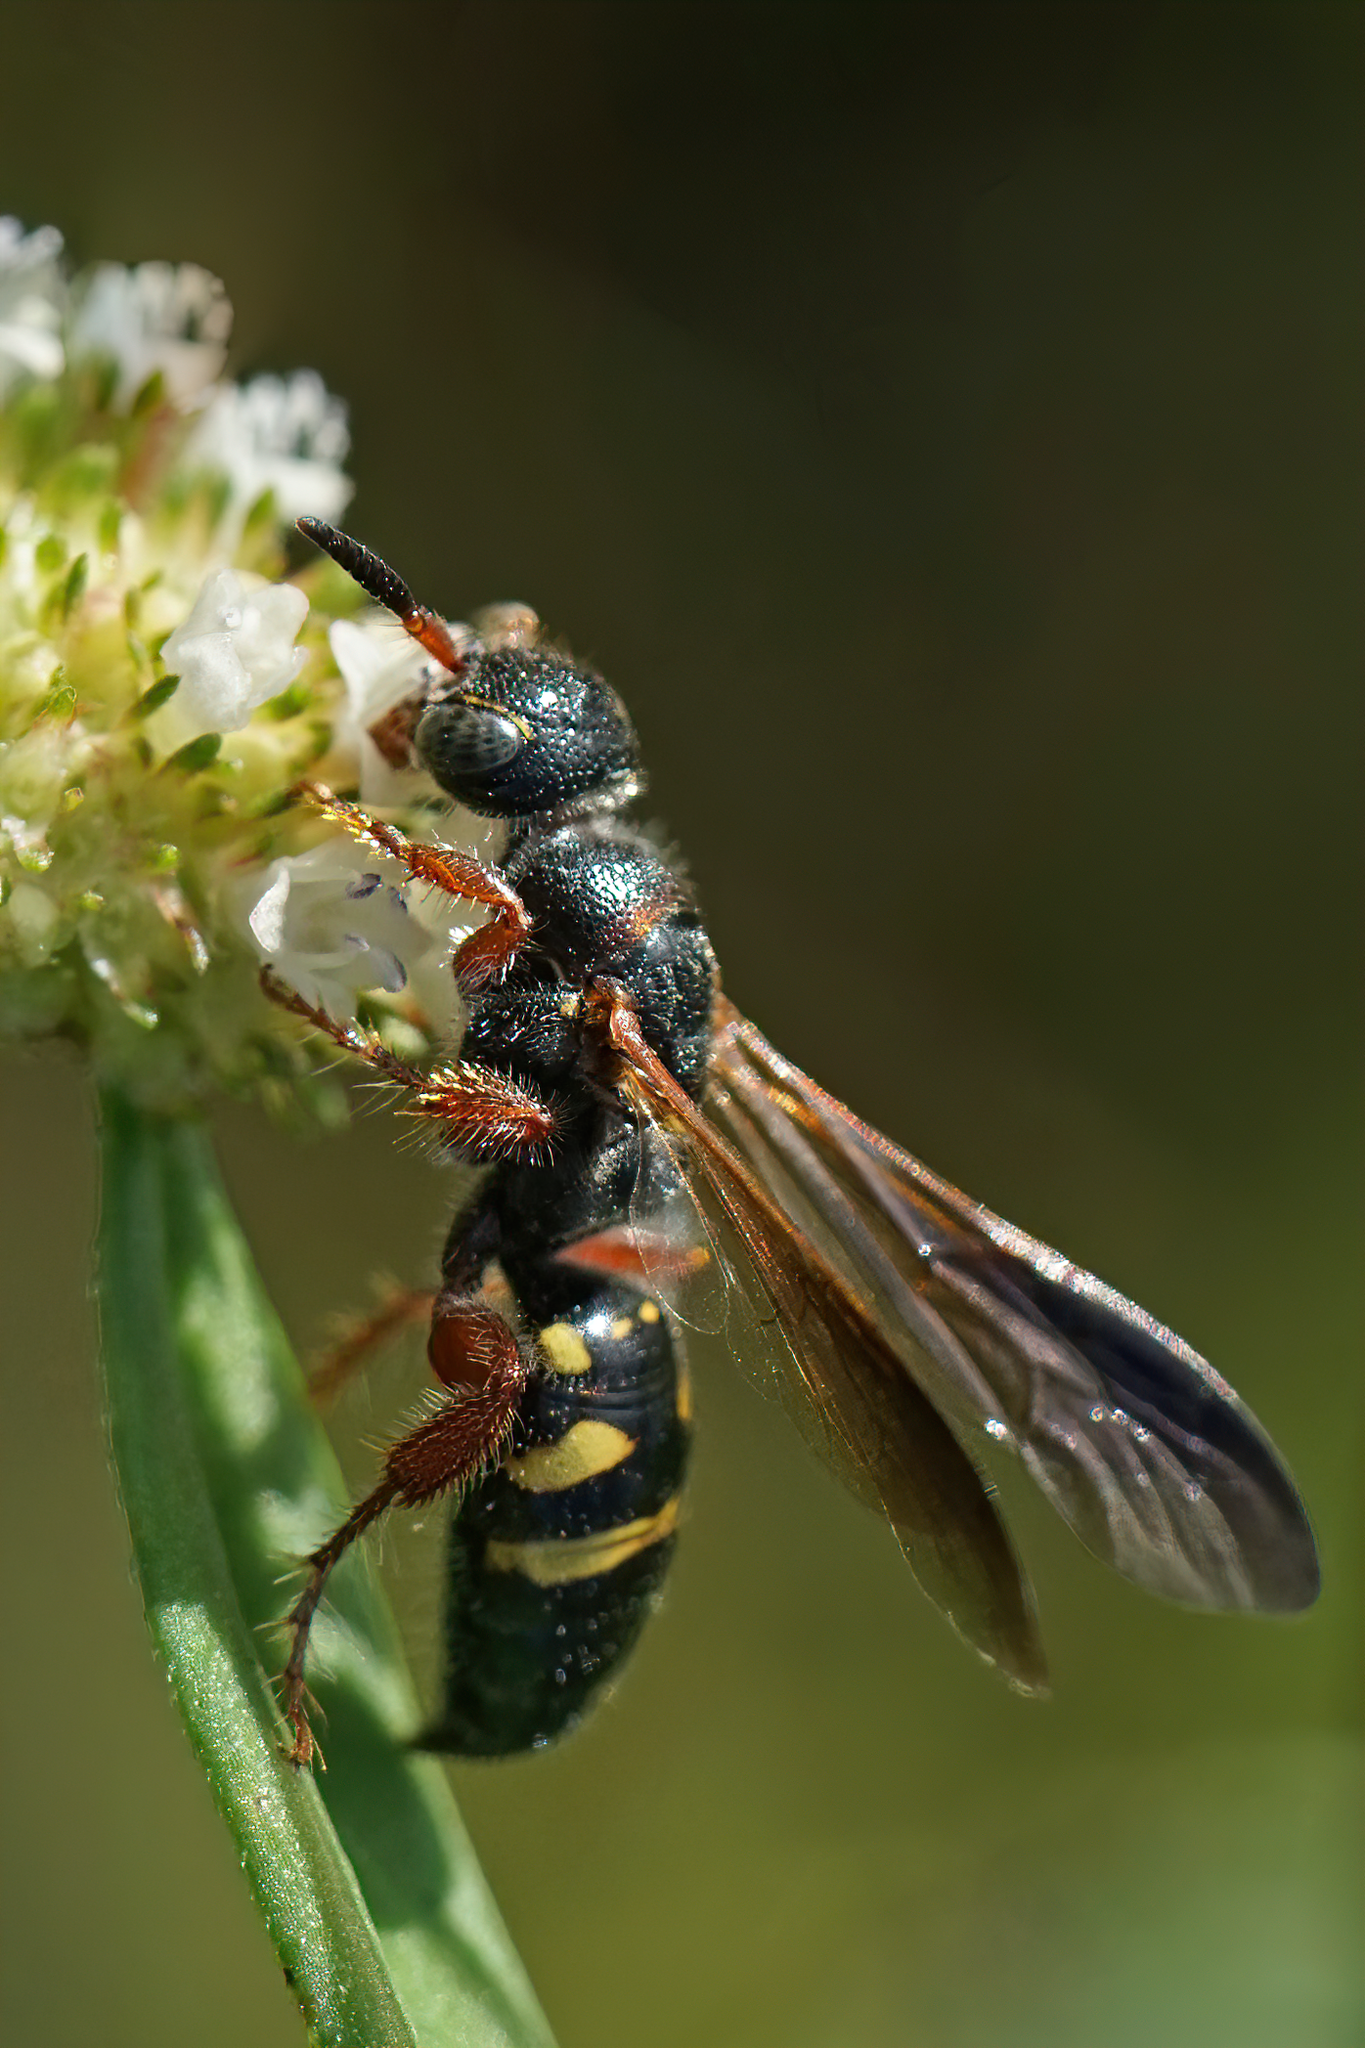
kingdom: Animalia
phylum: Arthropoda
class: Insecta
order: Hymenoptera
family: Tiphiidae
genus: Myzinum
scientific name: Myzinum dubiosum
